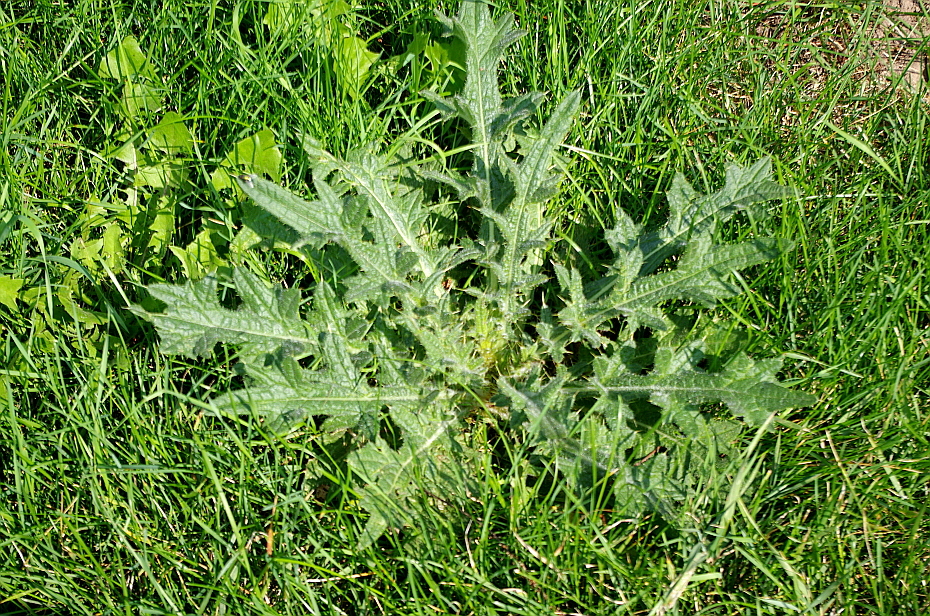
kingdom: Plantae
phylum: Tracheophyta
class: Magnoliopsida
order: Asterales
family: Asteraceae
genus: Cirsium
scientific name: Cirsium vulgare
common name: Bull thistle
